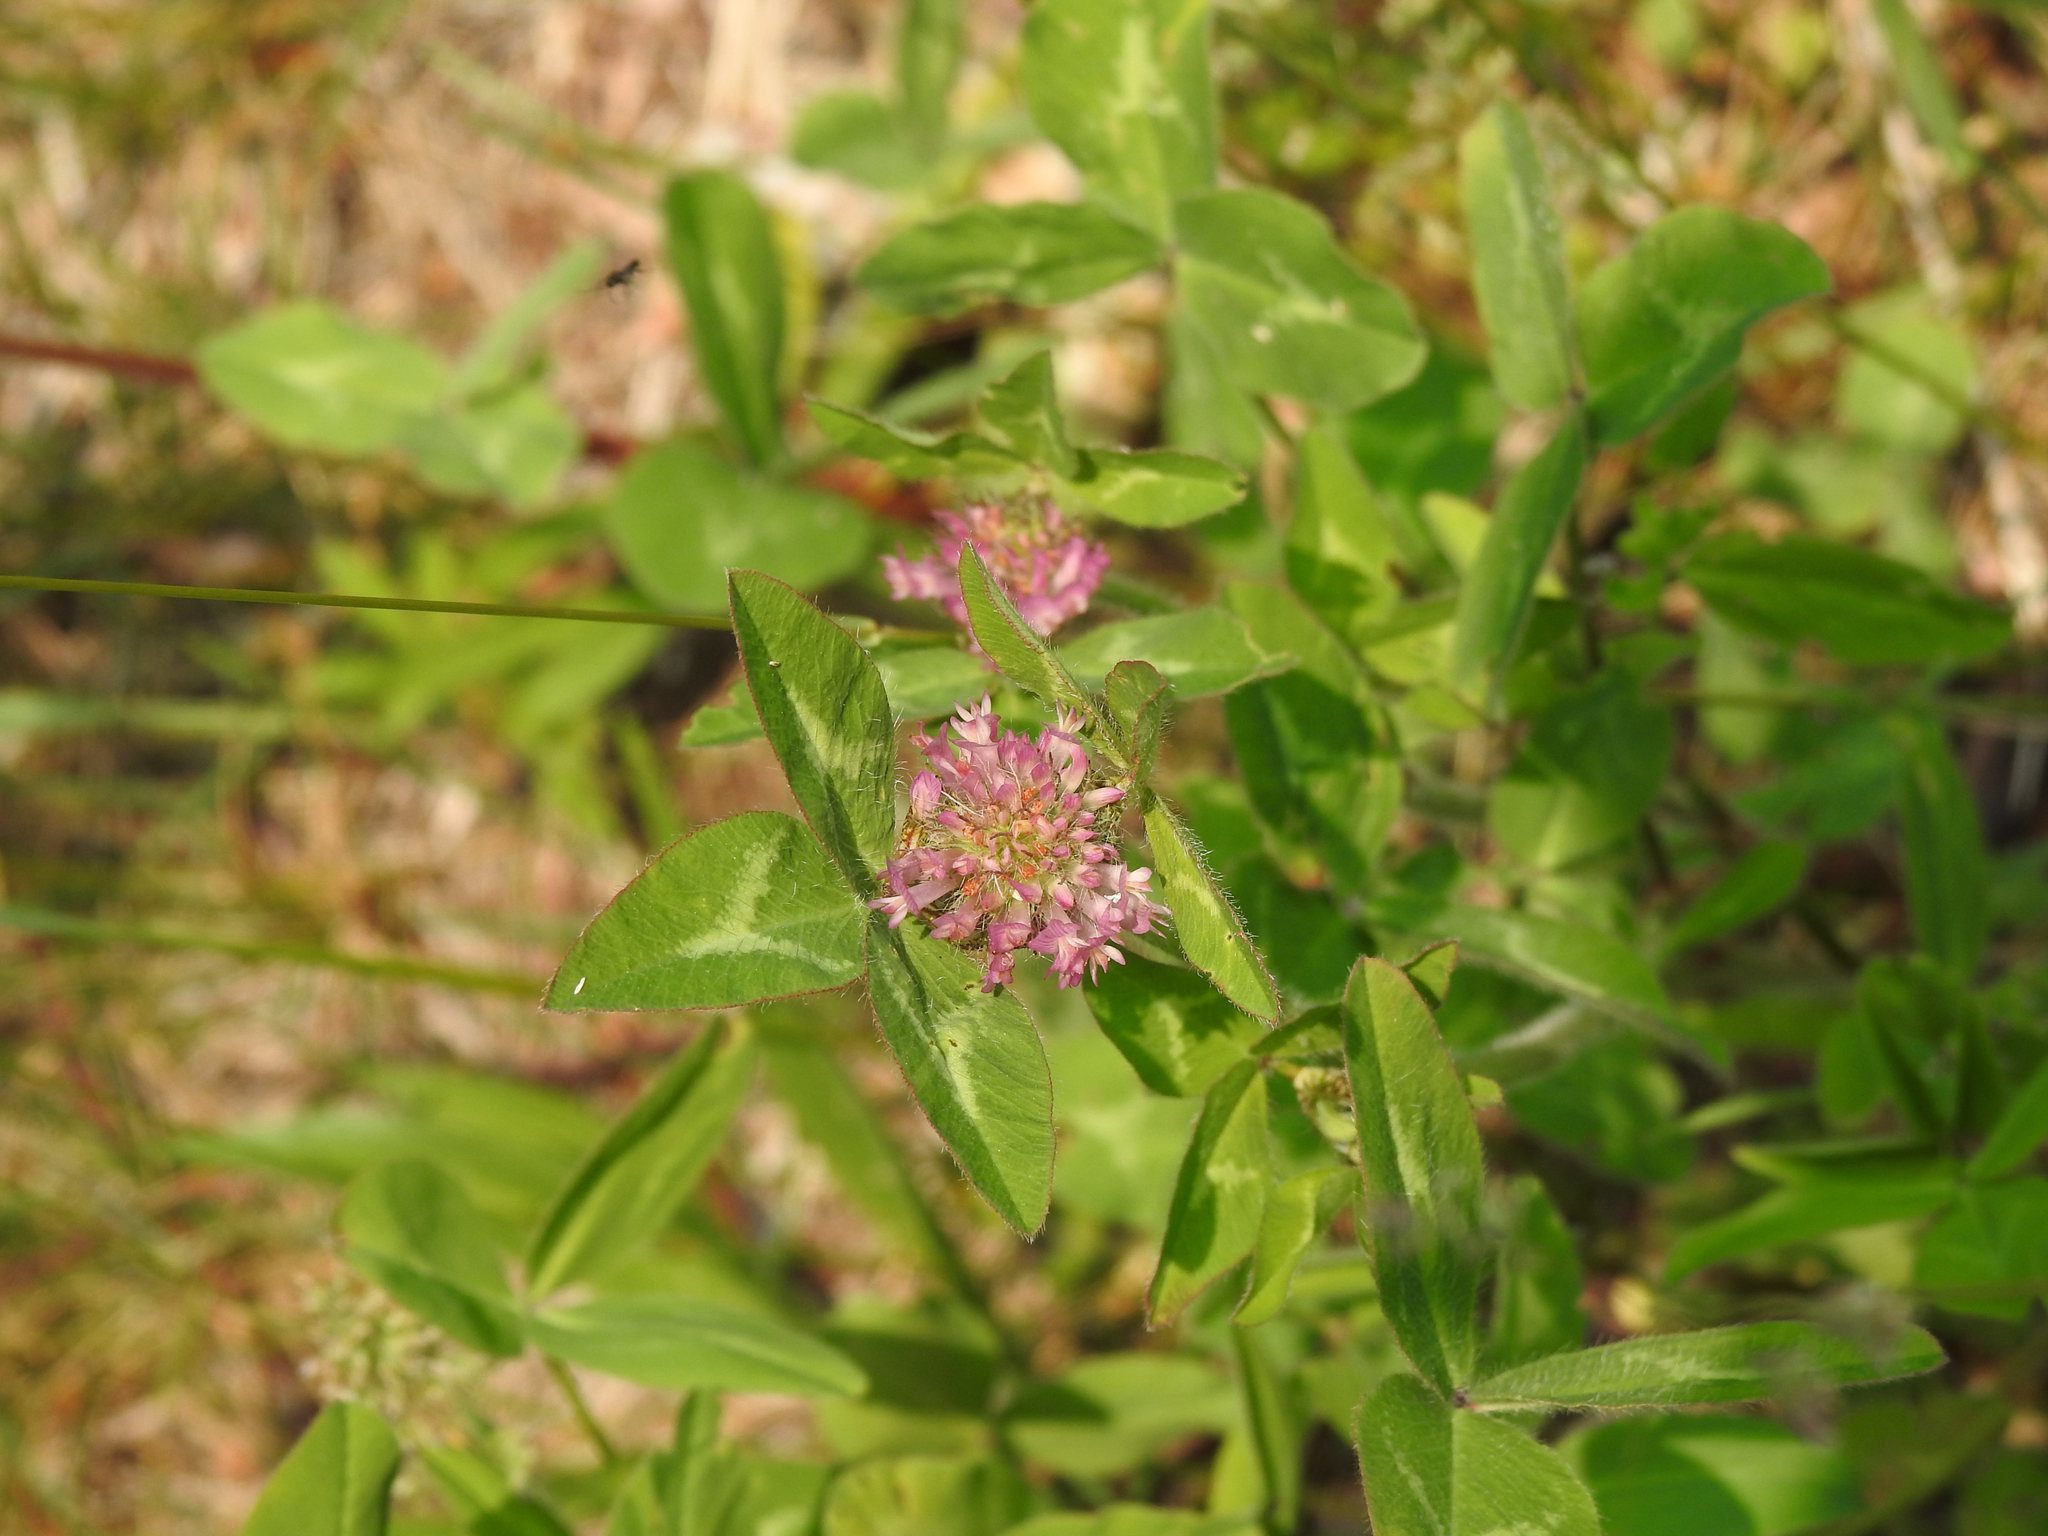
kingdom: Plantae
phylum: Tracheophyta
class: Magnoliopsida
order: Fabales
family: Fabaceae
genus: Trifolium
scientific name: Trifolium pratense
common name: Red clover
